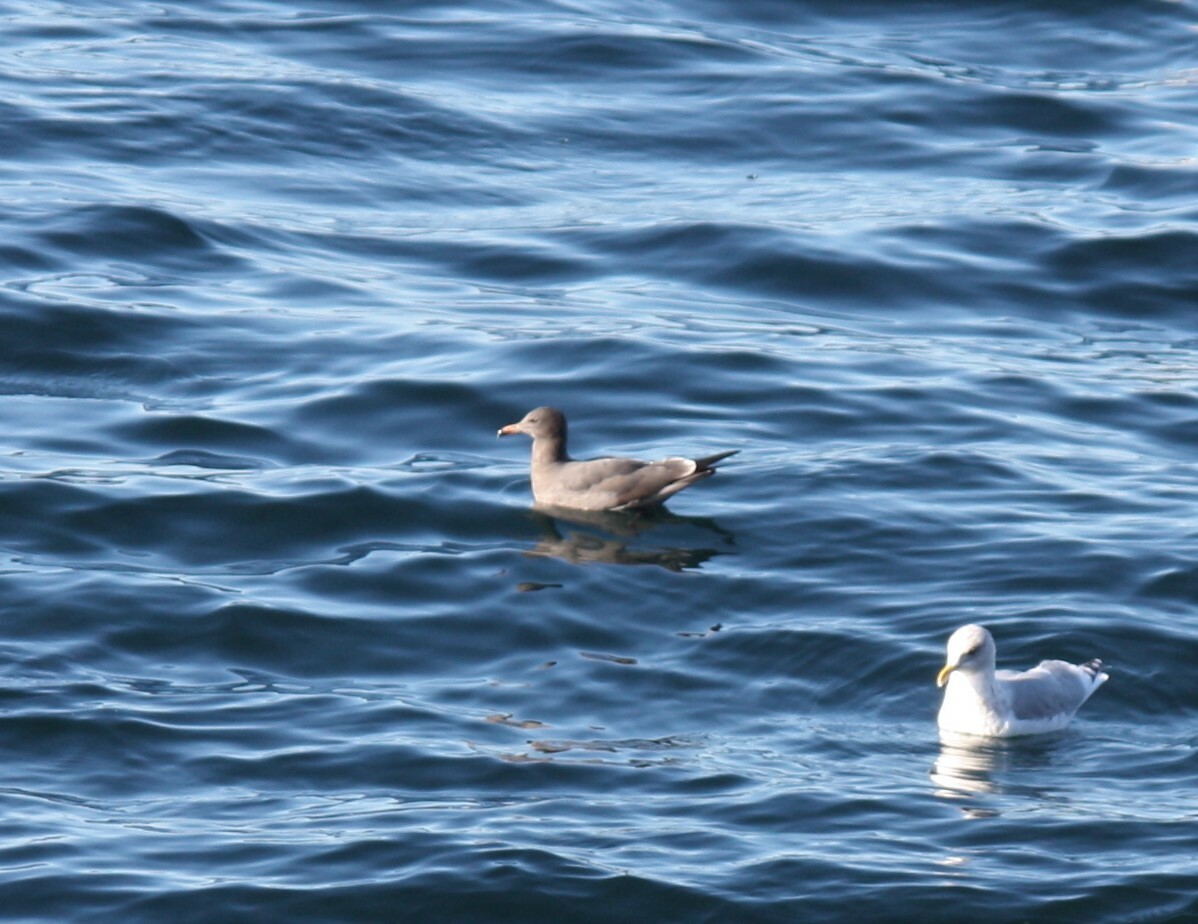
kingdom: Animalia
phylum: Chordata
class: Aves
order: Charadriiformes
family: Laridae
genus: Larus
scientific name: Larus heermanni
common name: Heermann's gull
